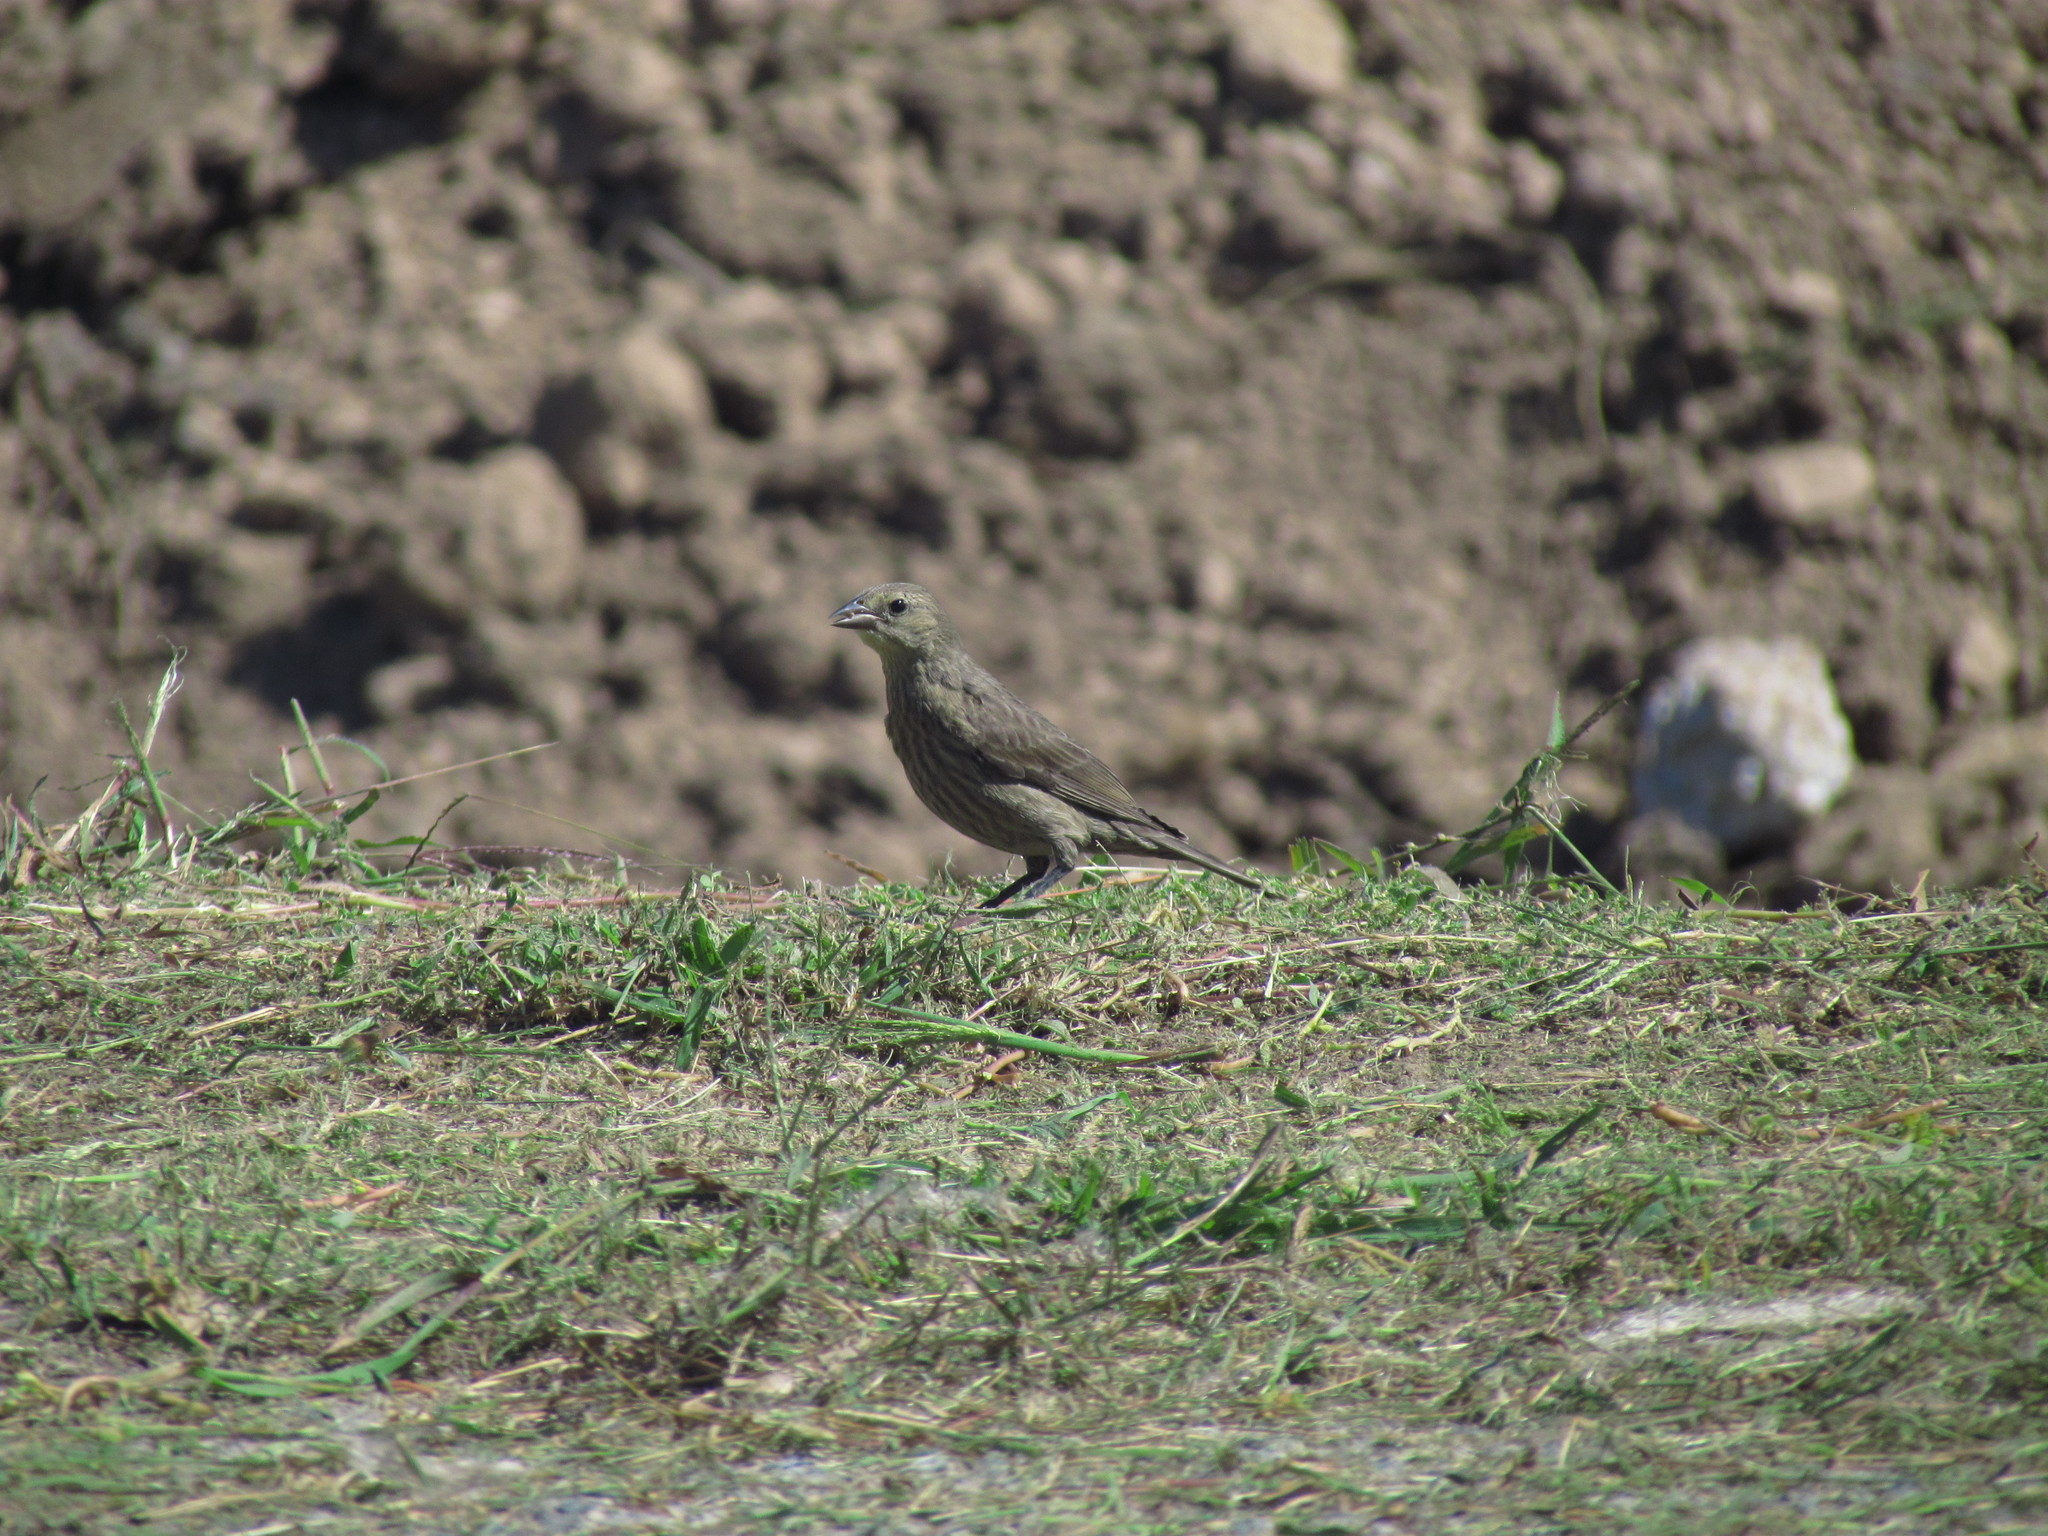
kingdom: Animalia
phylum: Chordata
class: Aves
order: Passeriformes
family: Icteridae
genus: Molothrus
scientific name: Molothrus bonariensis
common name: Shiny cowbird
